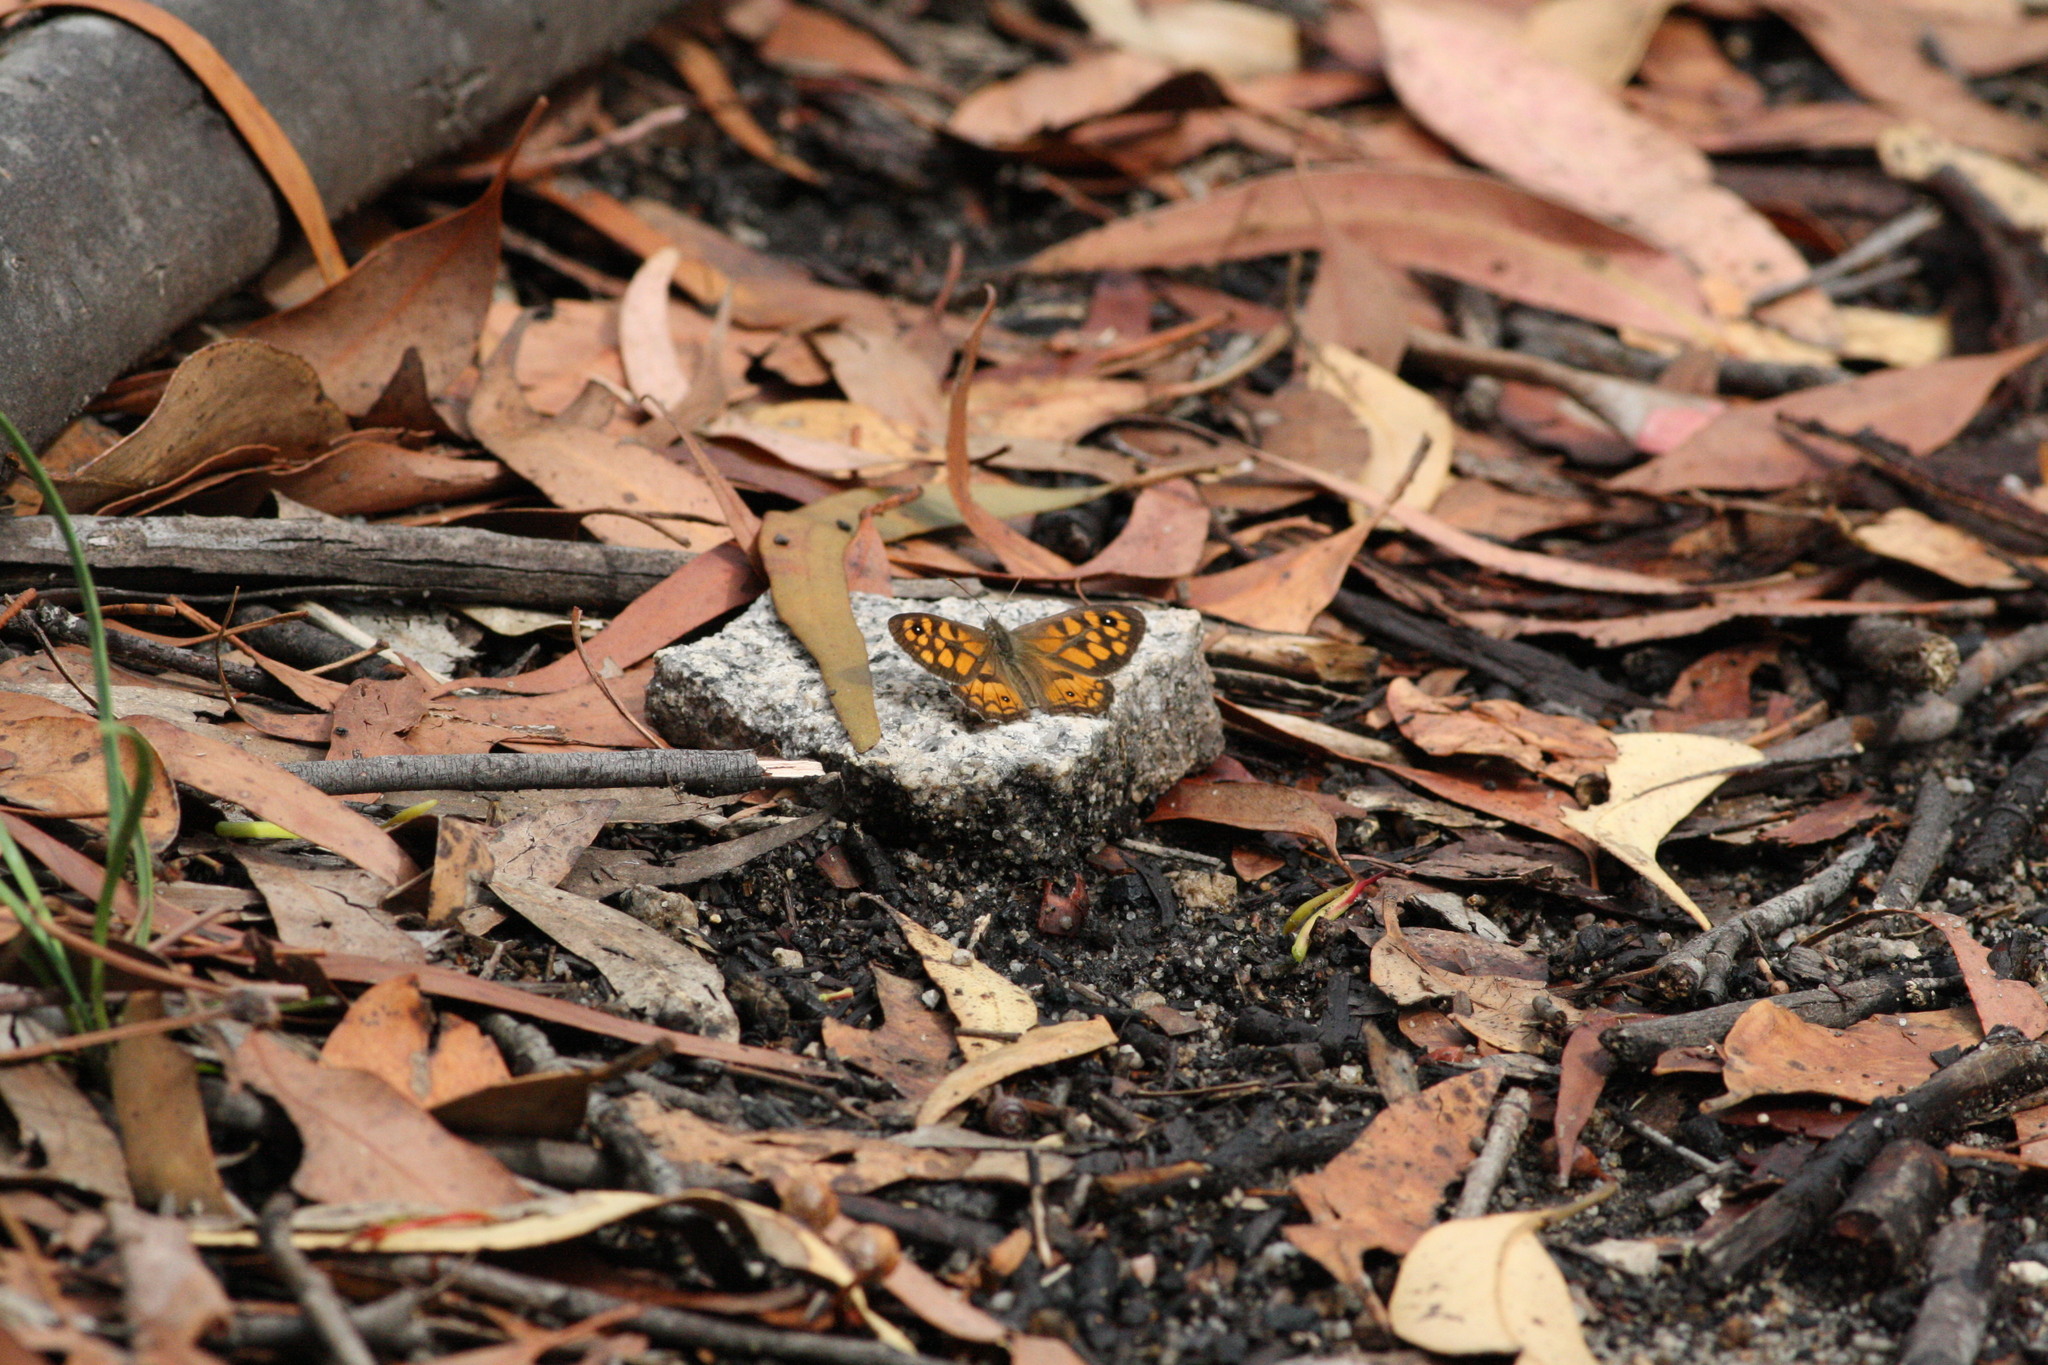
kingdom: Animalia
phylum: Arthropoda
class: Insecta
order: Lepidoptera
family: Nymphalidae
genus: Geitoneura
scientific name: Geitoneura klugii
